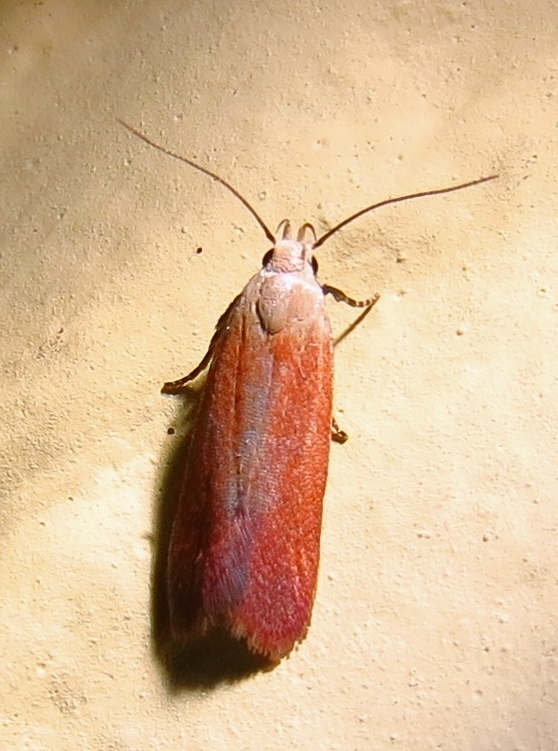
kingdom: Animalia
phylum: Arthropoda
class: Insecta
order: Lepidoptera
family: Gelechiidae
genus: Anacampsis
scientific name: Anacampsis fullonella
